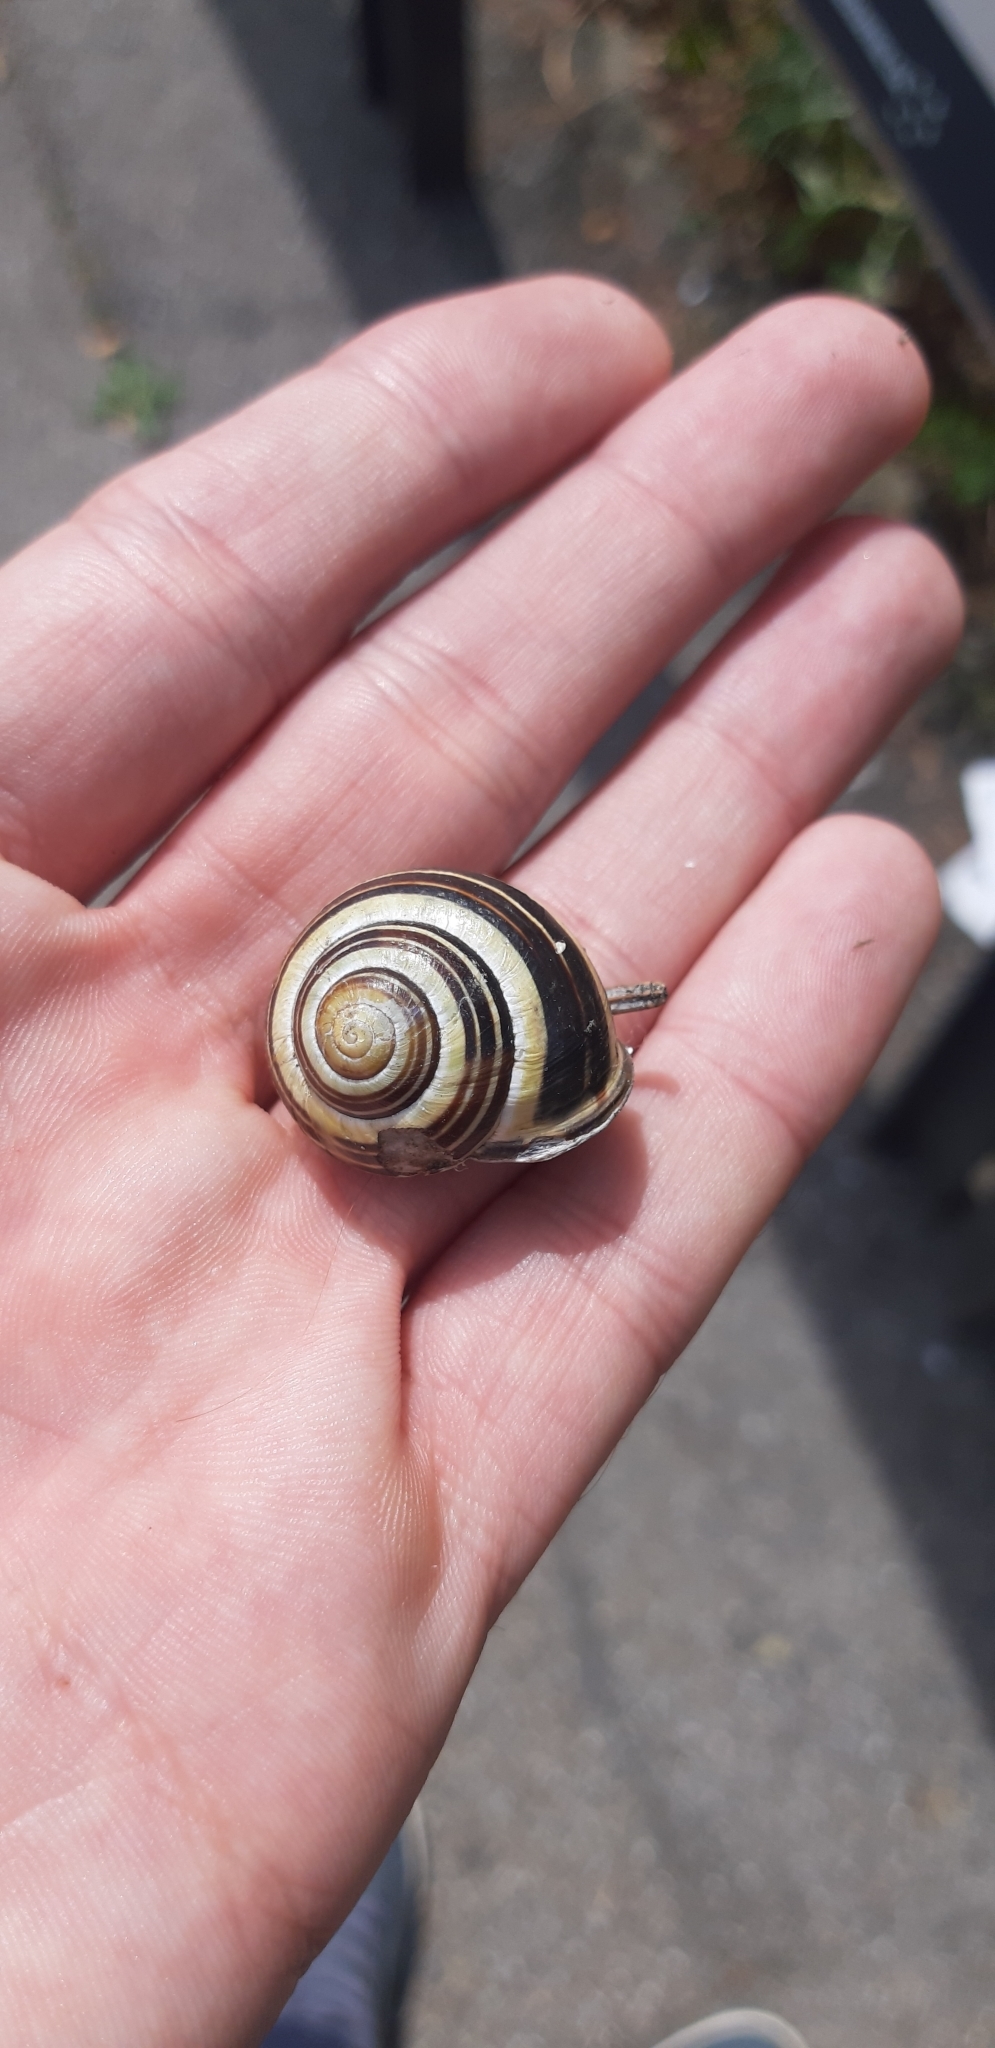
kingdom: Animalia
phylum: Mollusca
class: Gastropoda
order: Stylommatophora
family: Helicidae
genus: Cepaea
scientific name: Cepaea nemoralis
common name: Grovesnail
